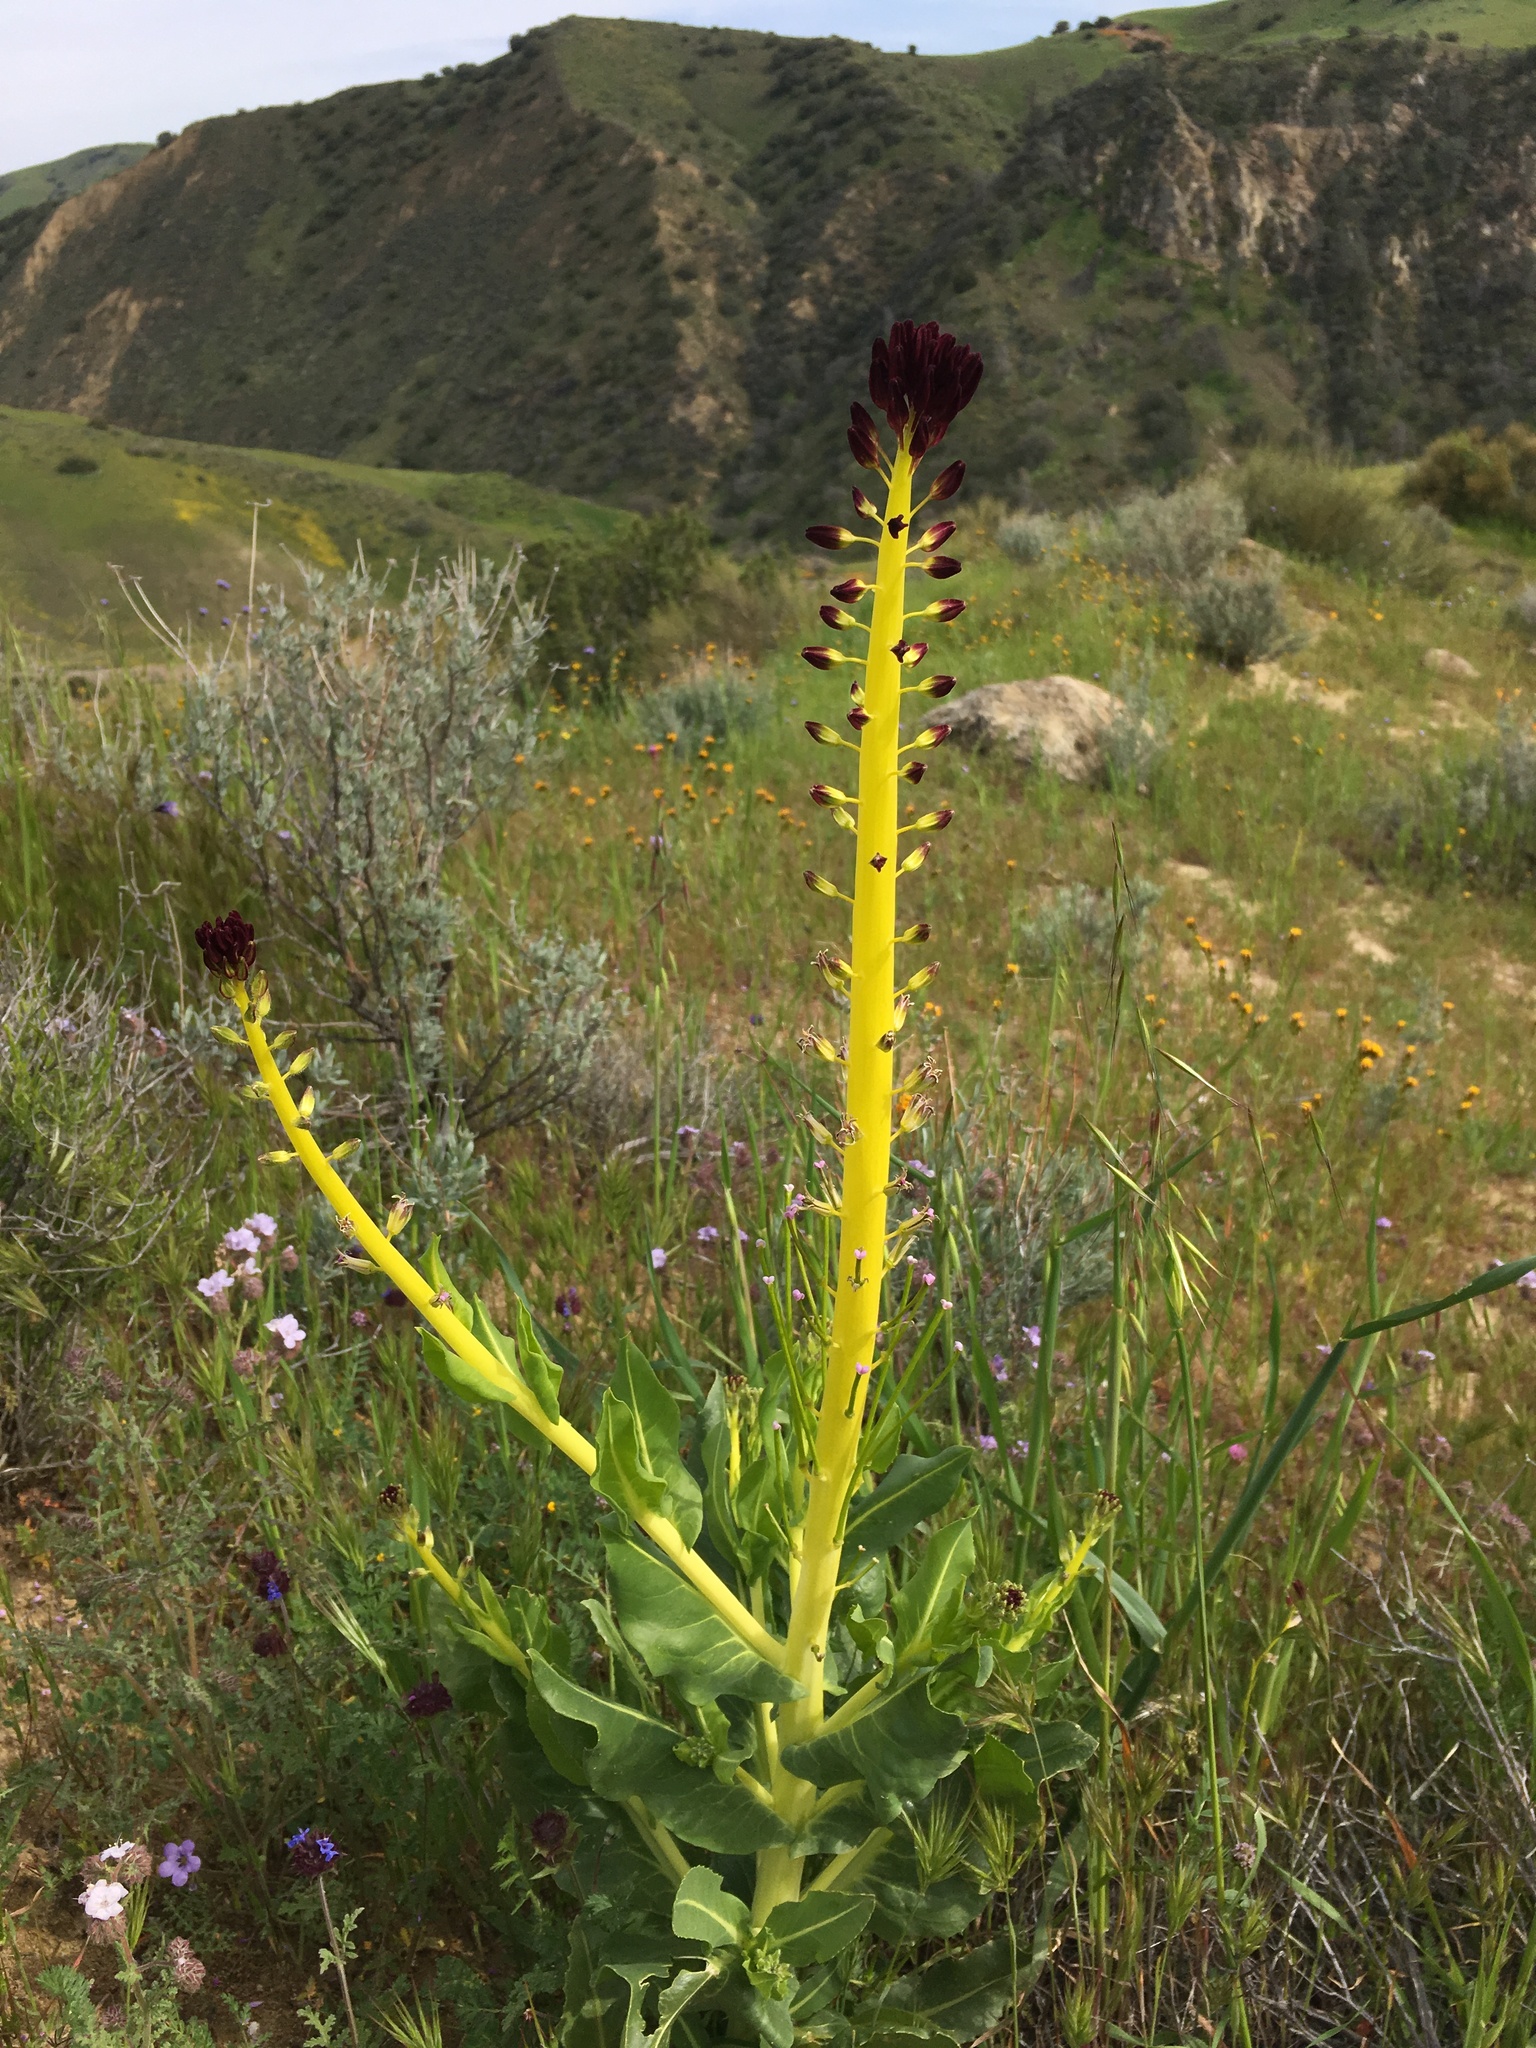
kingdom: Plantae
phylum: Tracheophyta
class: Magnoliopsida
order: Brassicales
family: Brassicaceae
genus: Streptanthus
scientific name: Streptanthus inflatus
